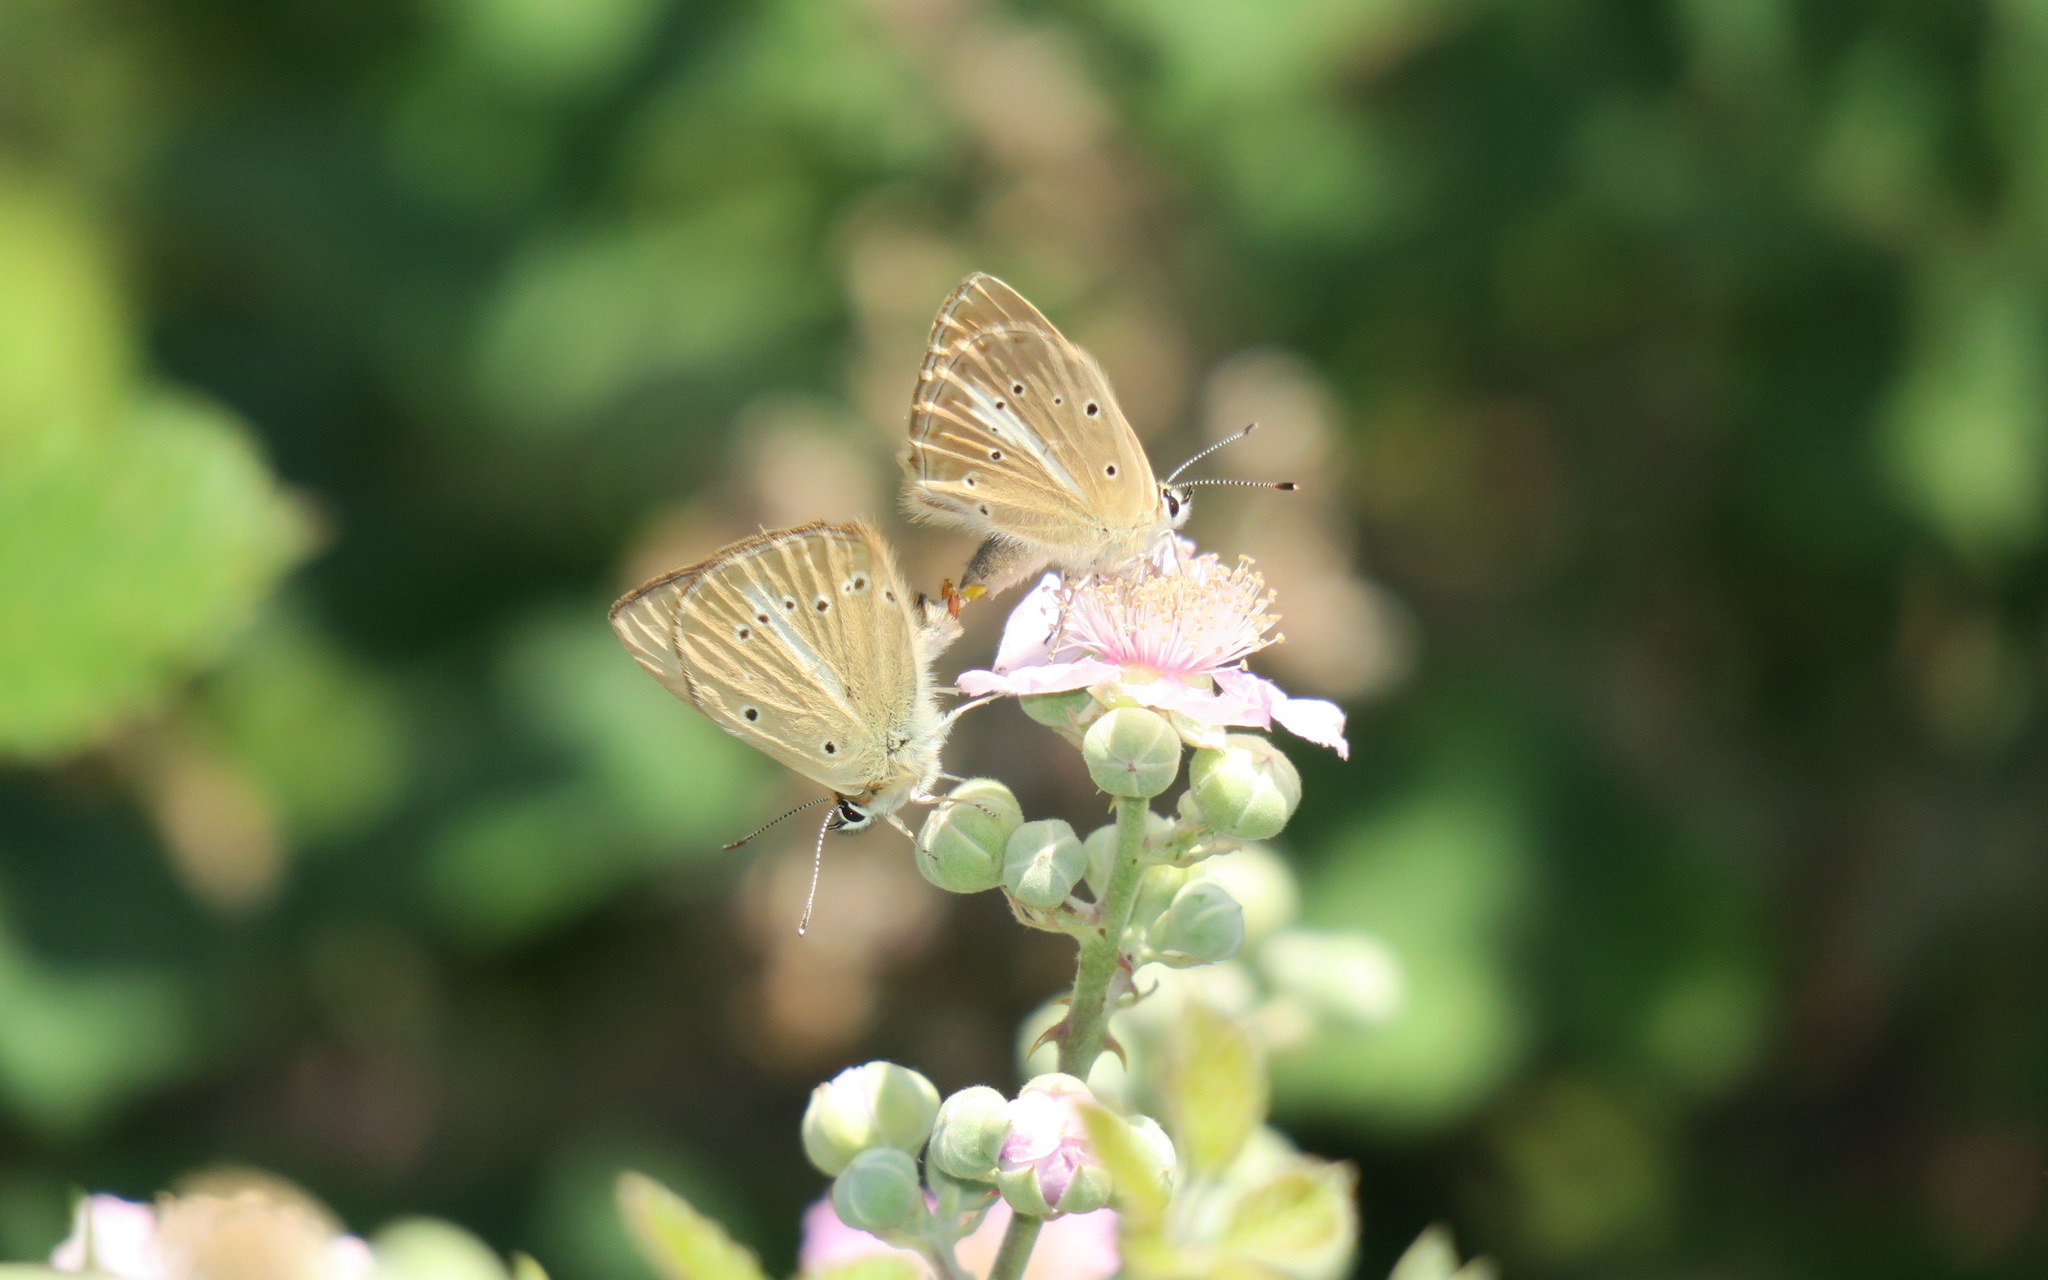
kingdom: Animalia
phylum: Arthropoda
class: Insecta
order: Lepidoptera
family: Lycaenidae
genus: Polyommatus
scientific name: Polyommatus ripartii
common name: Ripart's anomalous blue
